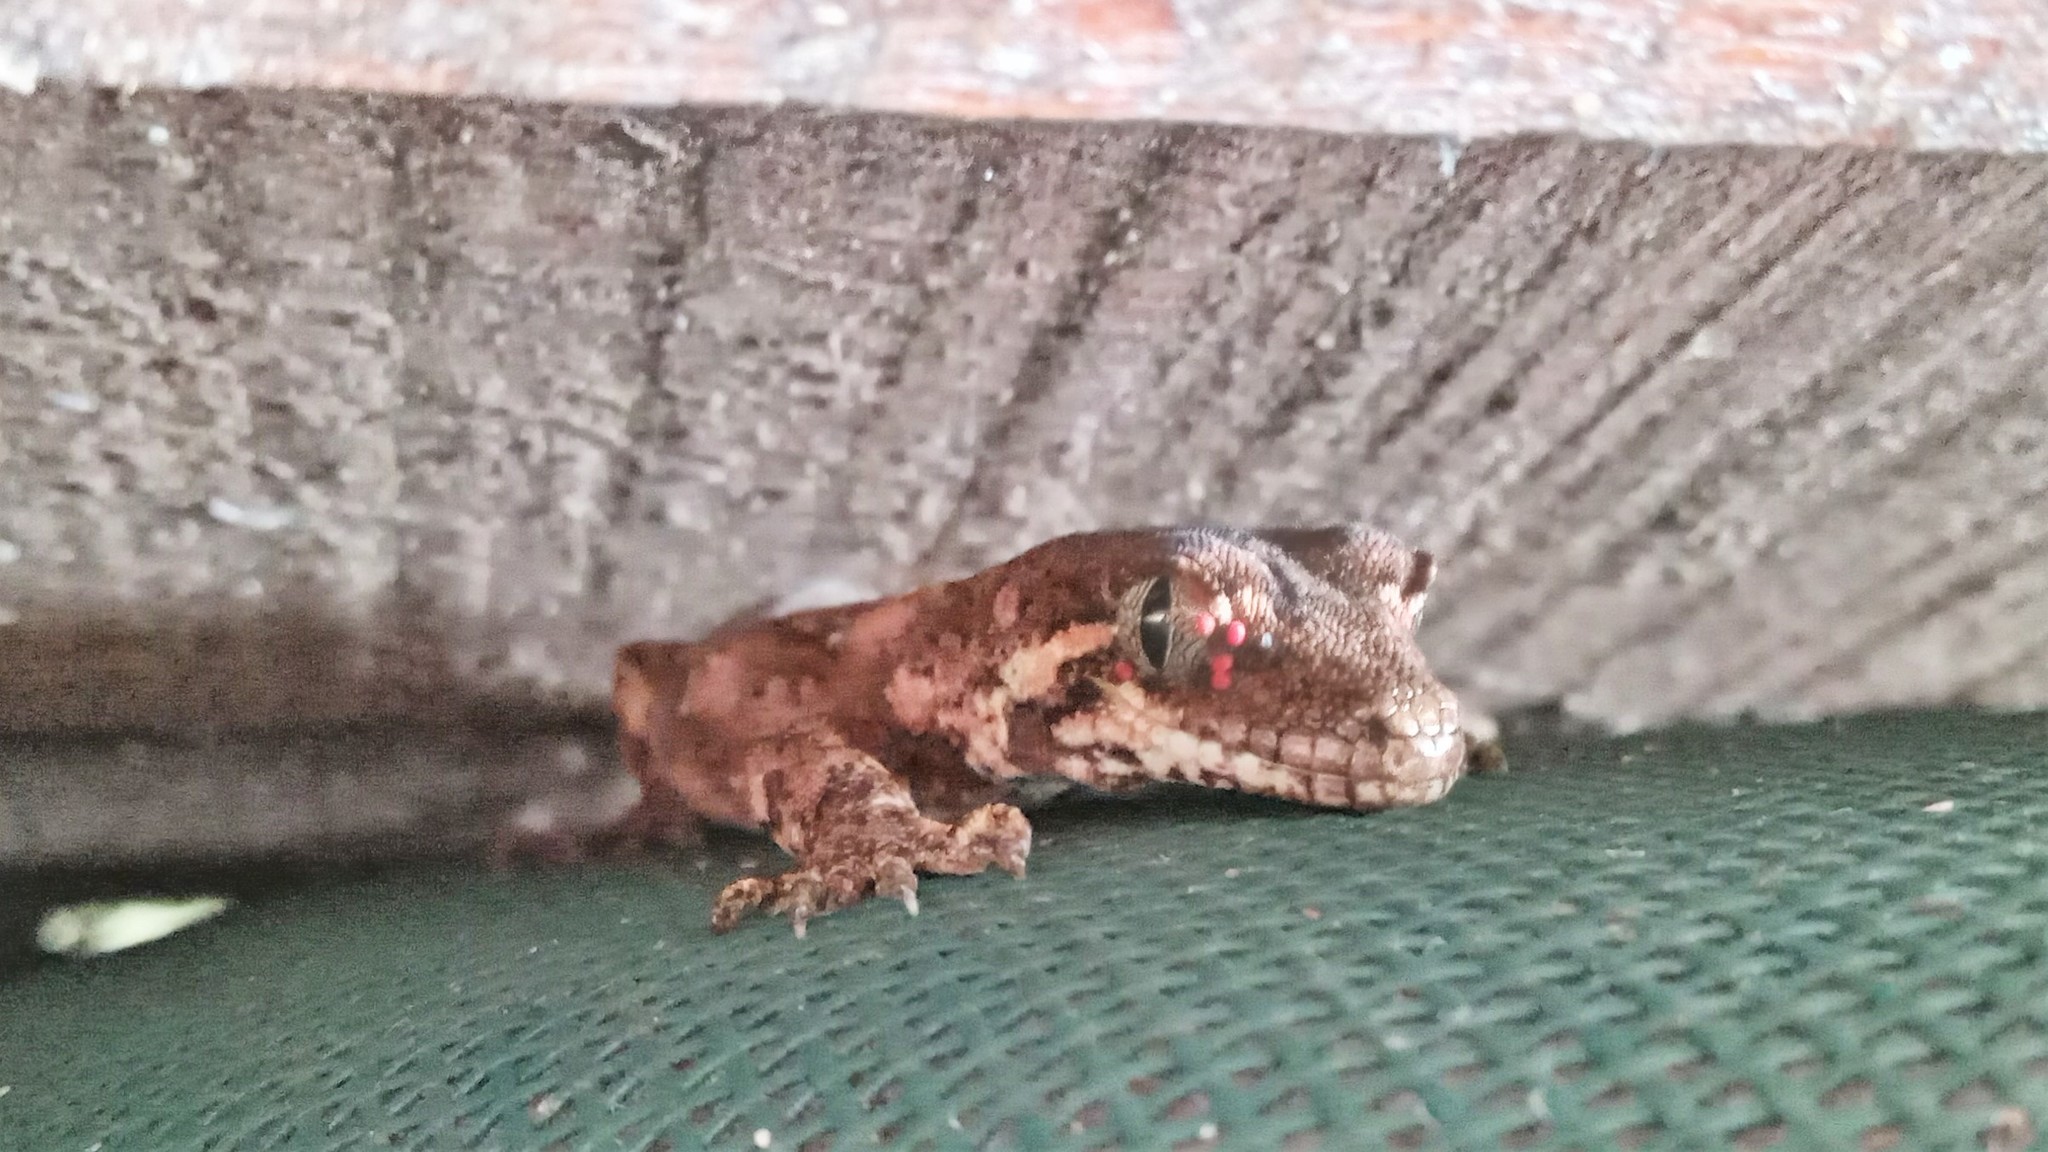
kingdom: Animalia
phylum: Arthropoda
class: Arachnida
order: Trombidiformes
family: Pterygosomatidae
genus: Geckobia
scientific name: Geckobia
